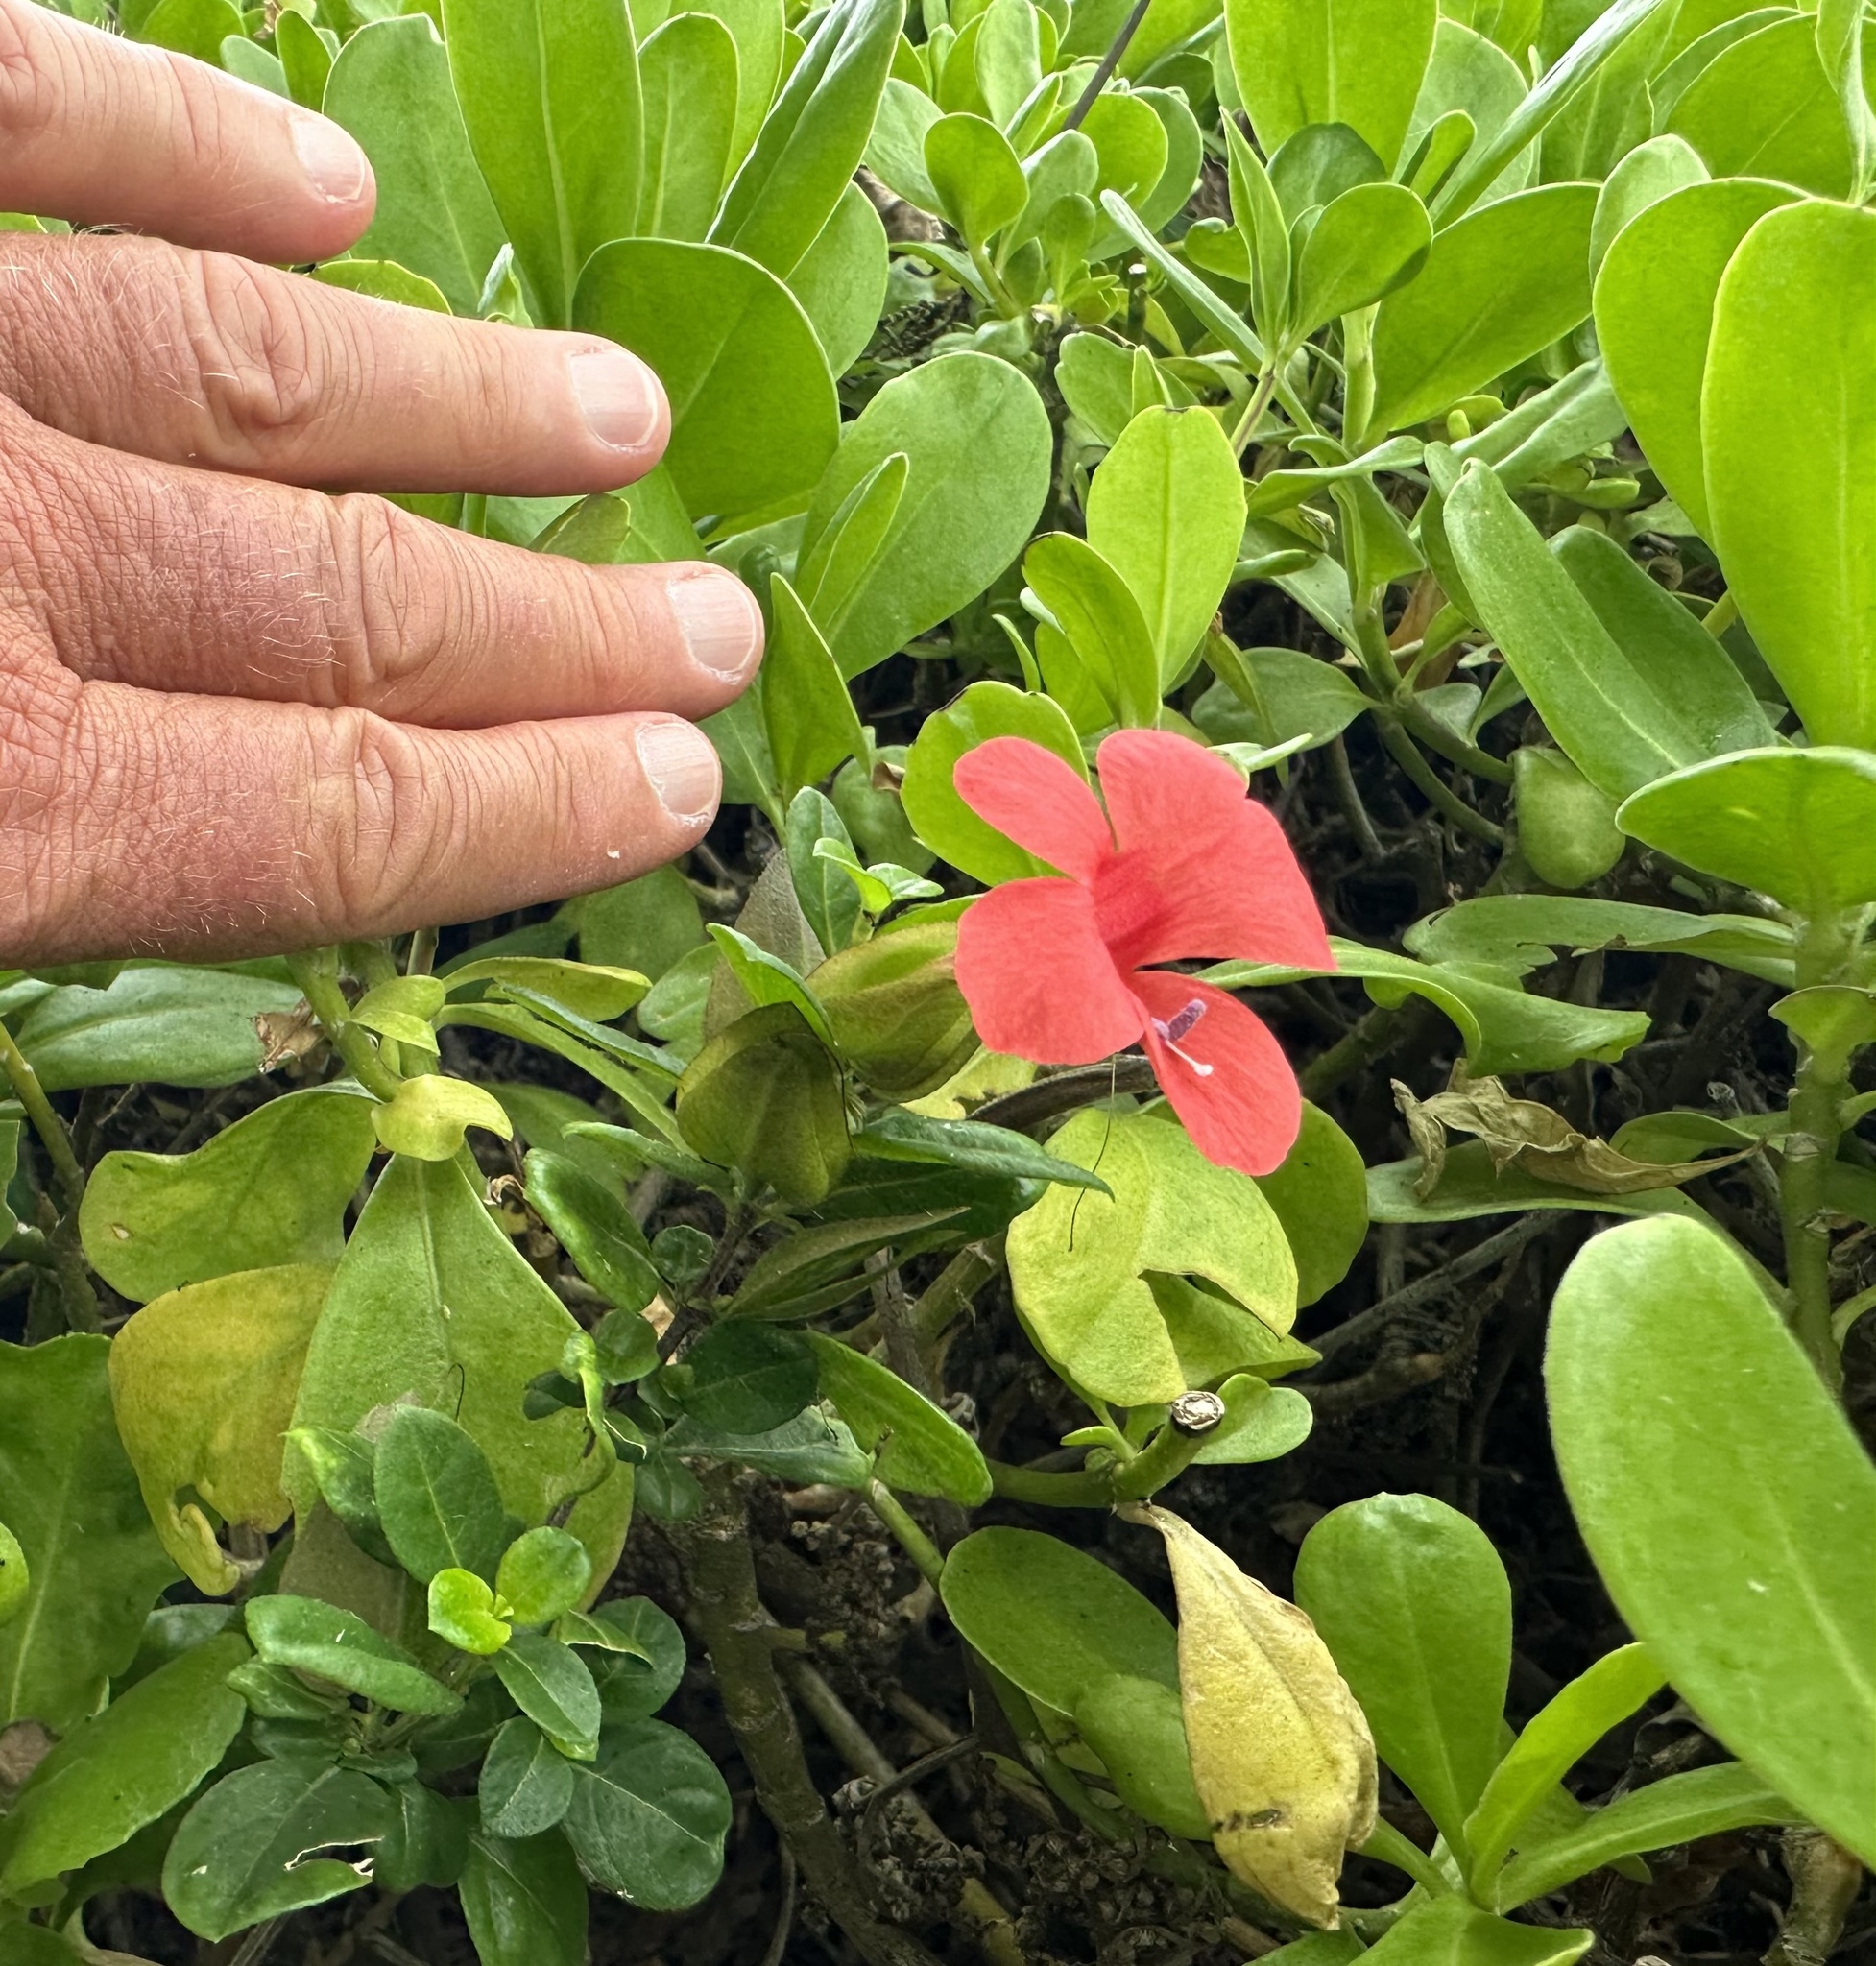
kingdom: Plantae
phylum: Tracheophyta
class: Magnoliopsida
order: Lamiales
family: Acanthaceae
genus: Barleria
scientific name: Barleria repens
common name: Pink-ruellia
